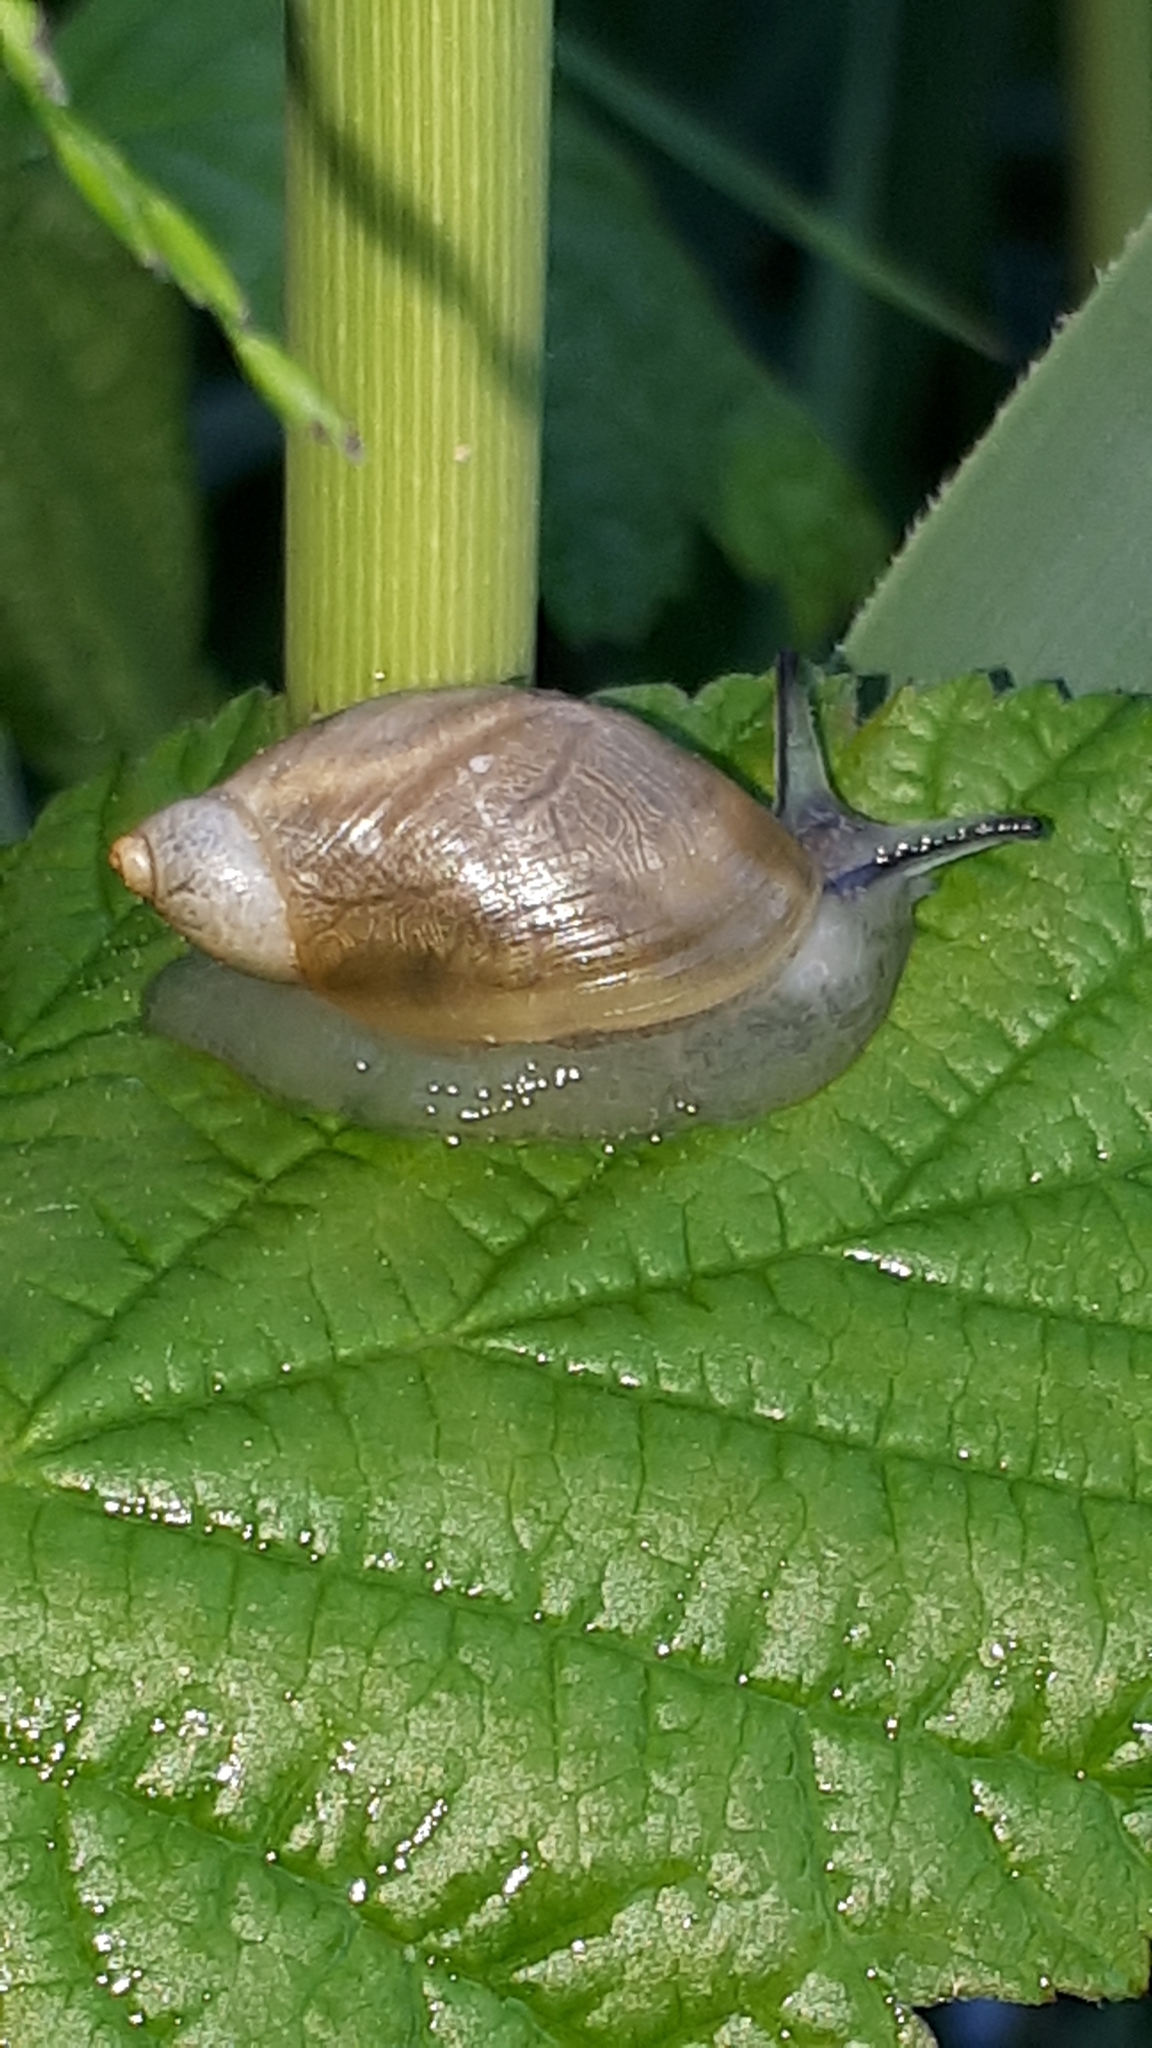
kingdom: Animalia
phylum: Mollusca
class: Gastropoda
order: Stylommatophora
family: Succineidae
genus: Succinea
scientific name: Succinea putris
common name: European ambersnail
